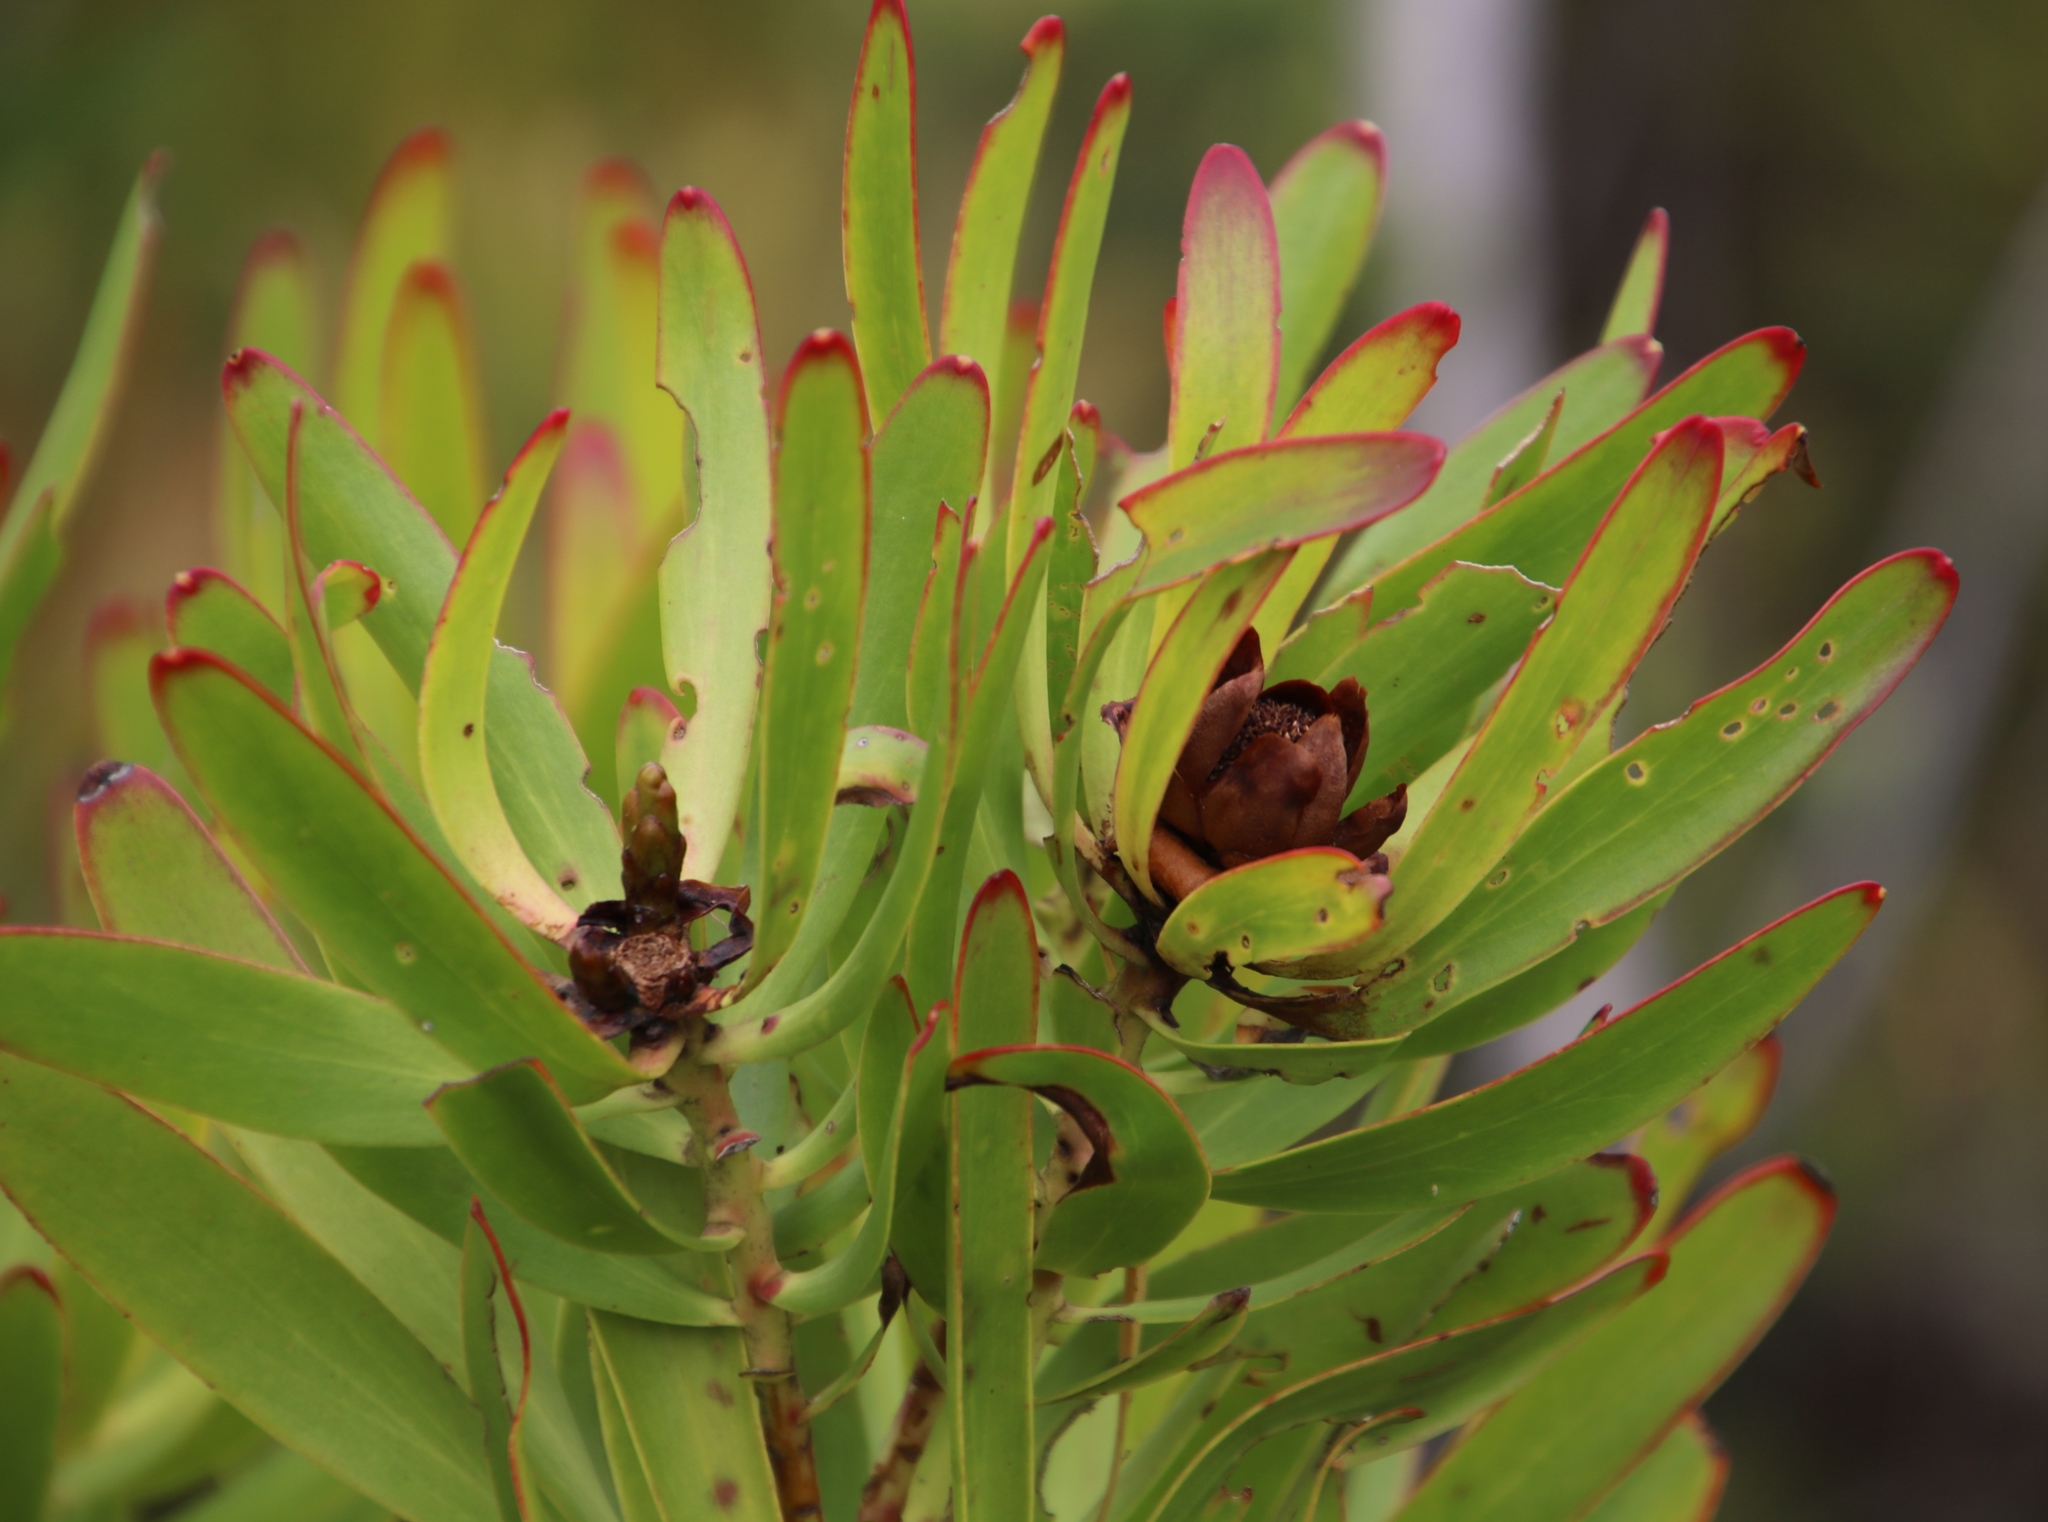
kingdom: Plantae
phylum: Tracheophyta
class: Magnoliopsida
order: Proteales
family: Proteaceae
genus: Leucadendron
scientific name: Leucadendron microcephalum
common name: Oilbract conebush
